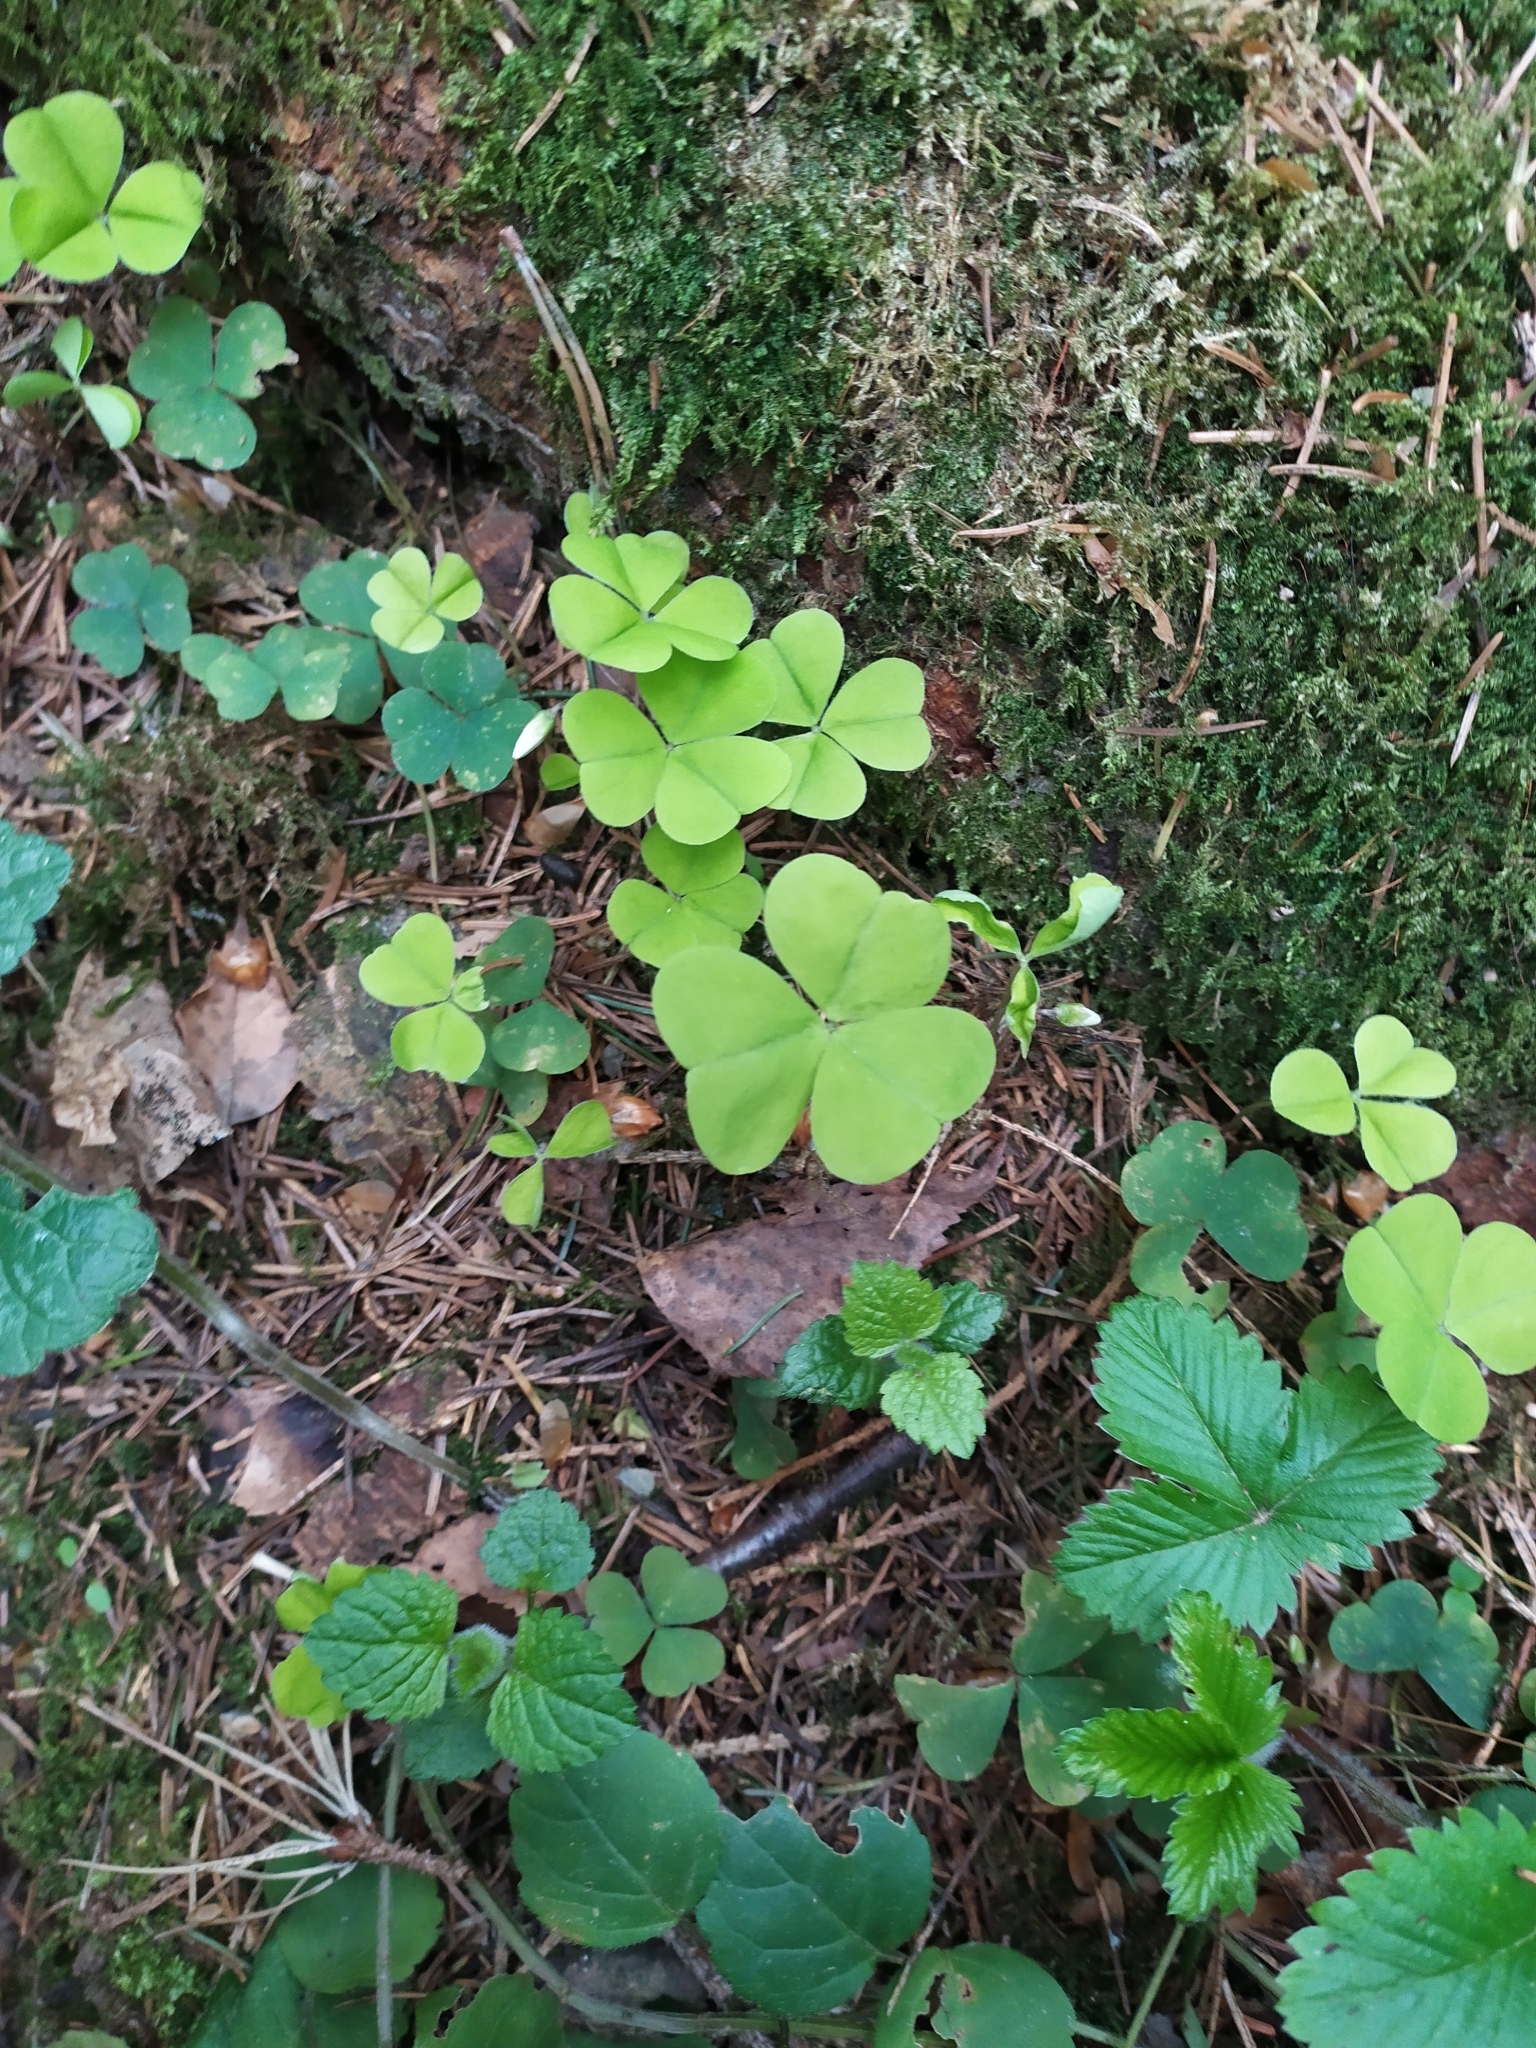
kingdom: Plantae
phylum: Tracheophyta
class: Magnoliopsida
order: Oxalidales
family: Oxalidaceae
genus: Oxalis
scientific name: Oxalis acetosella
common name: Wood-sorrel
